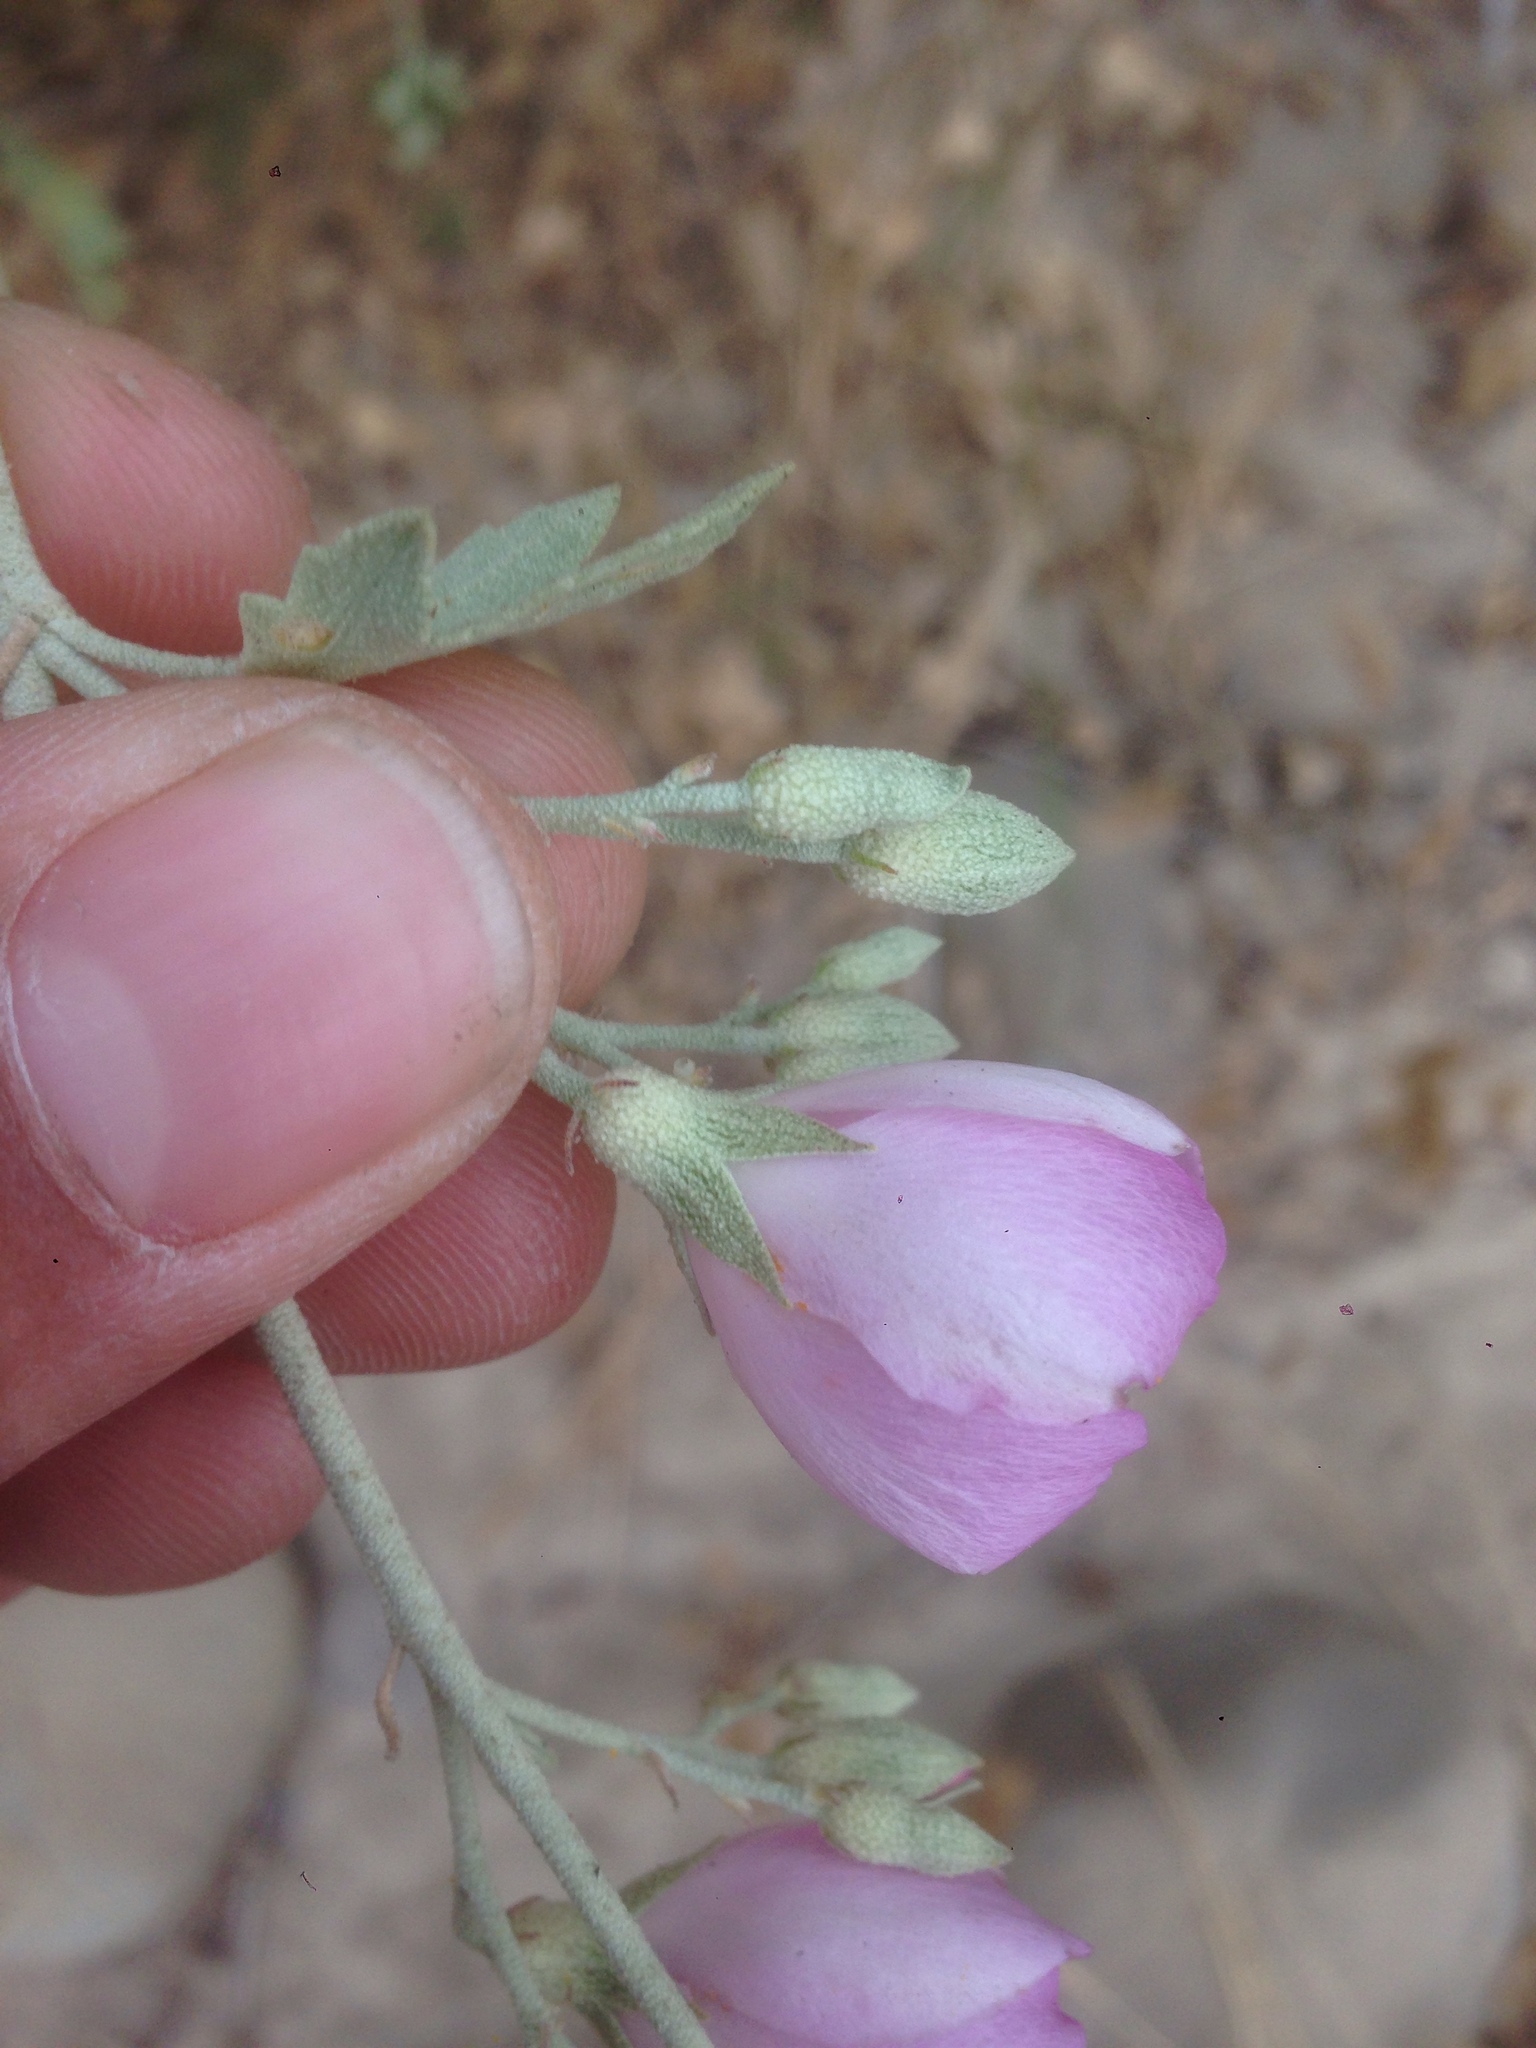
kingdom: Plantae
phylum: Tracheophyta
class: Magnoliopsida
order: Malvales
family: Malvaceae
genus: Malacothamnus
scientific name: Malacothamnus fasciculatus
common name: Sant cruz island bush-mallow
